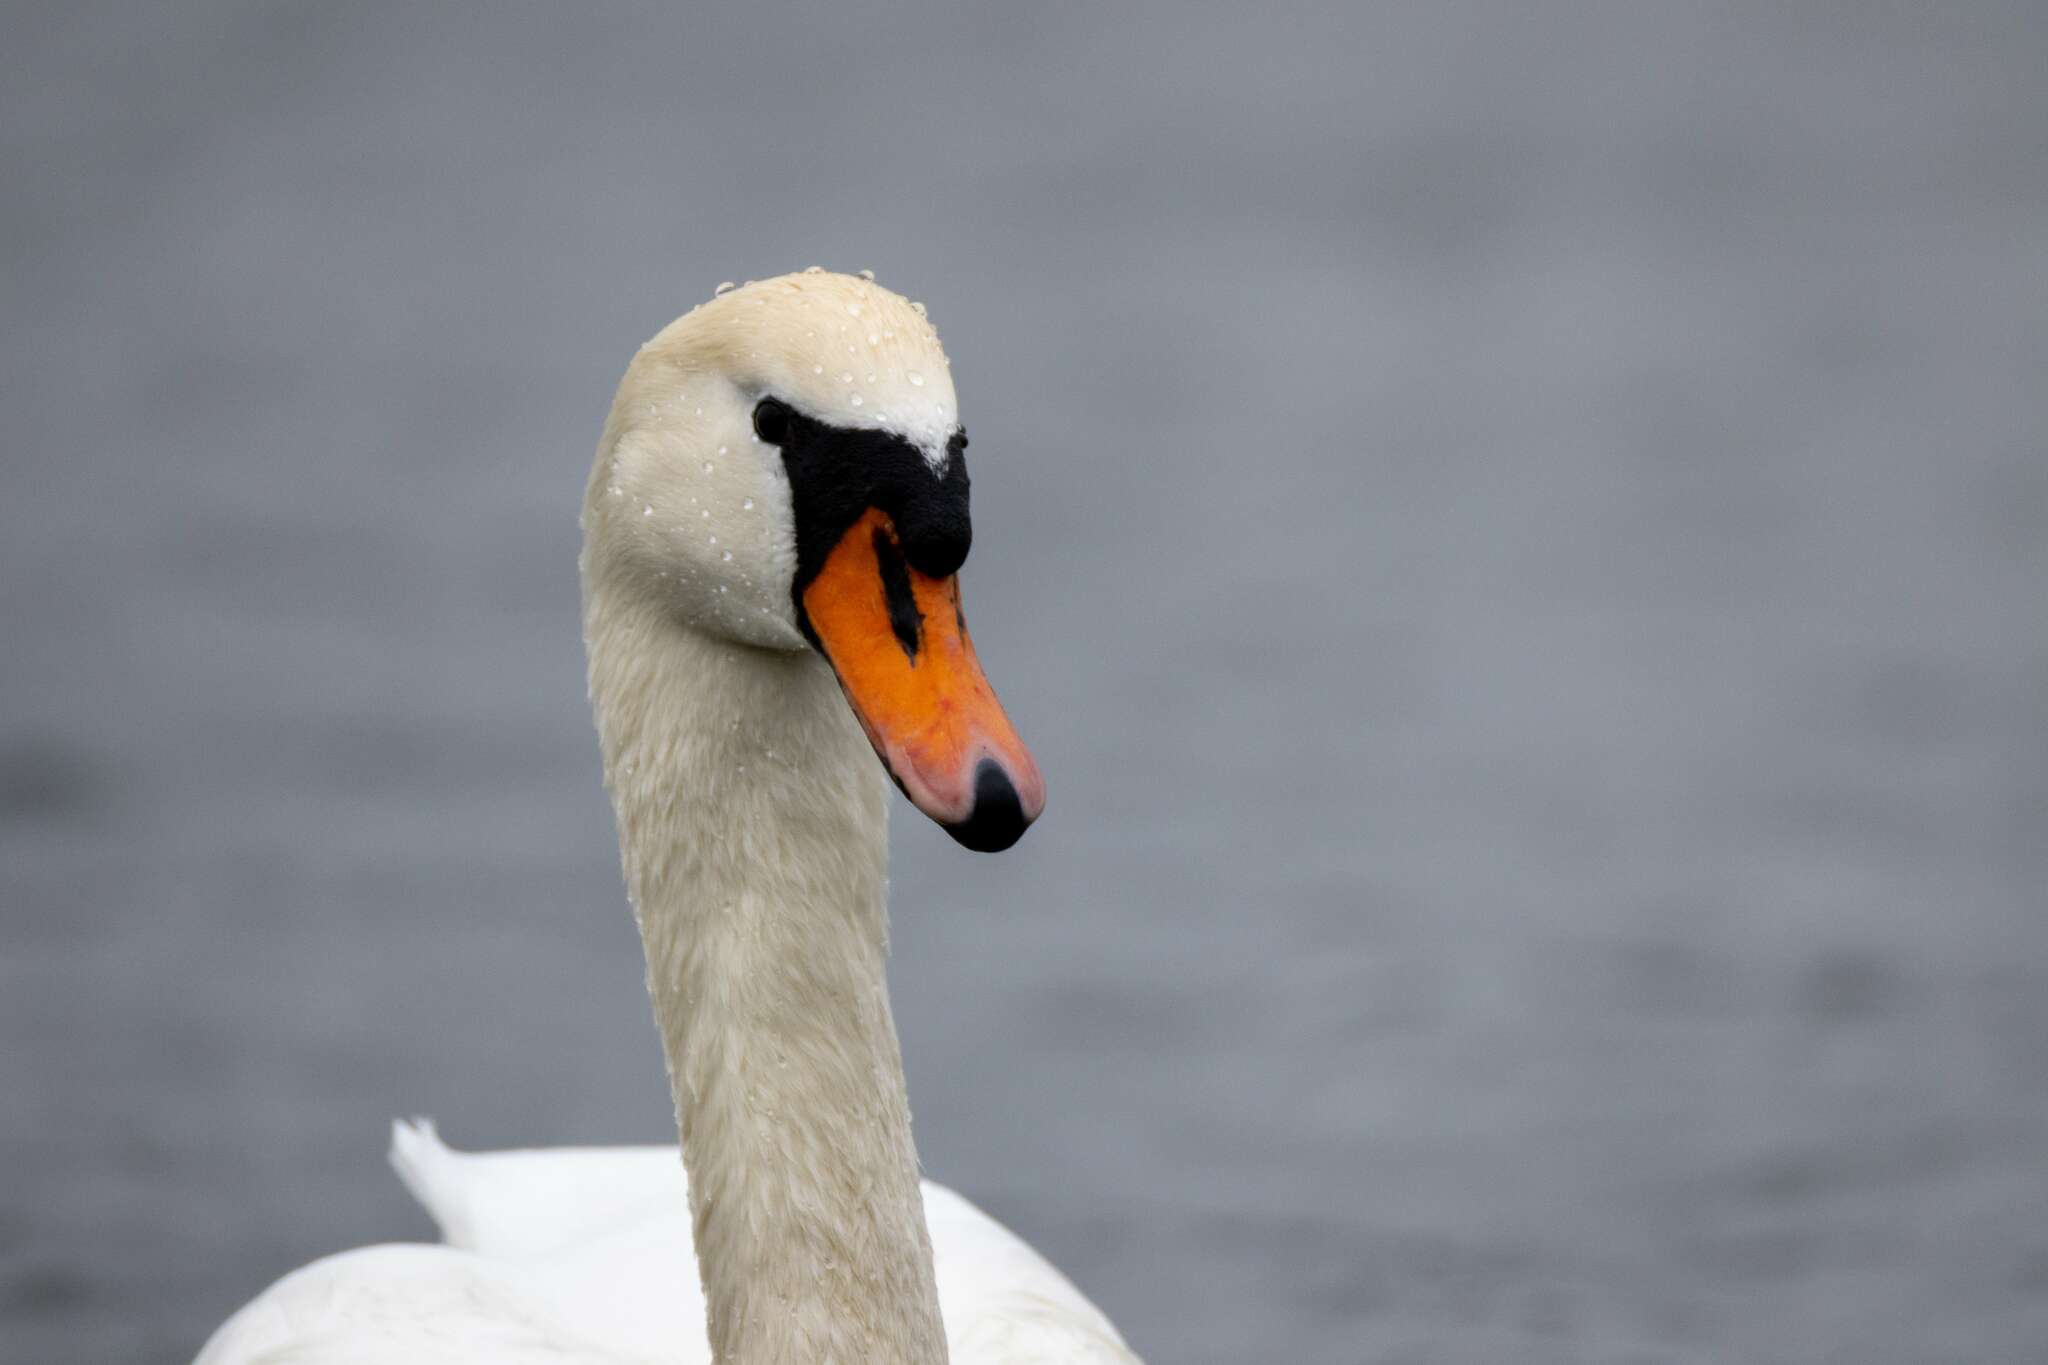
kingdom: Animalia
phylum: Chordata
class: Aves
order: Anseriformes
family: Anatidae
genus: Cygnus
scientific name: Cygnus olor
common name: Mute swan
